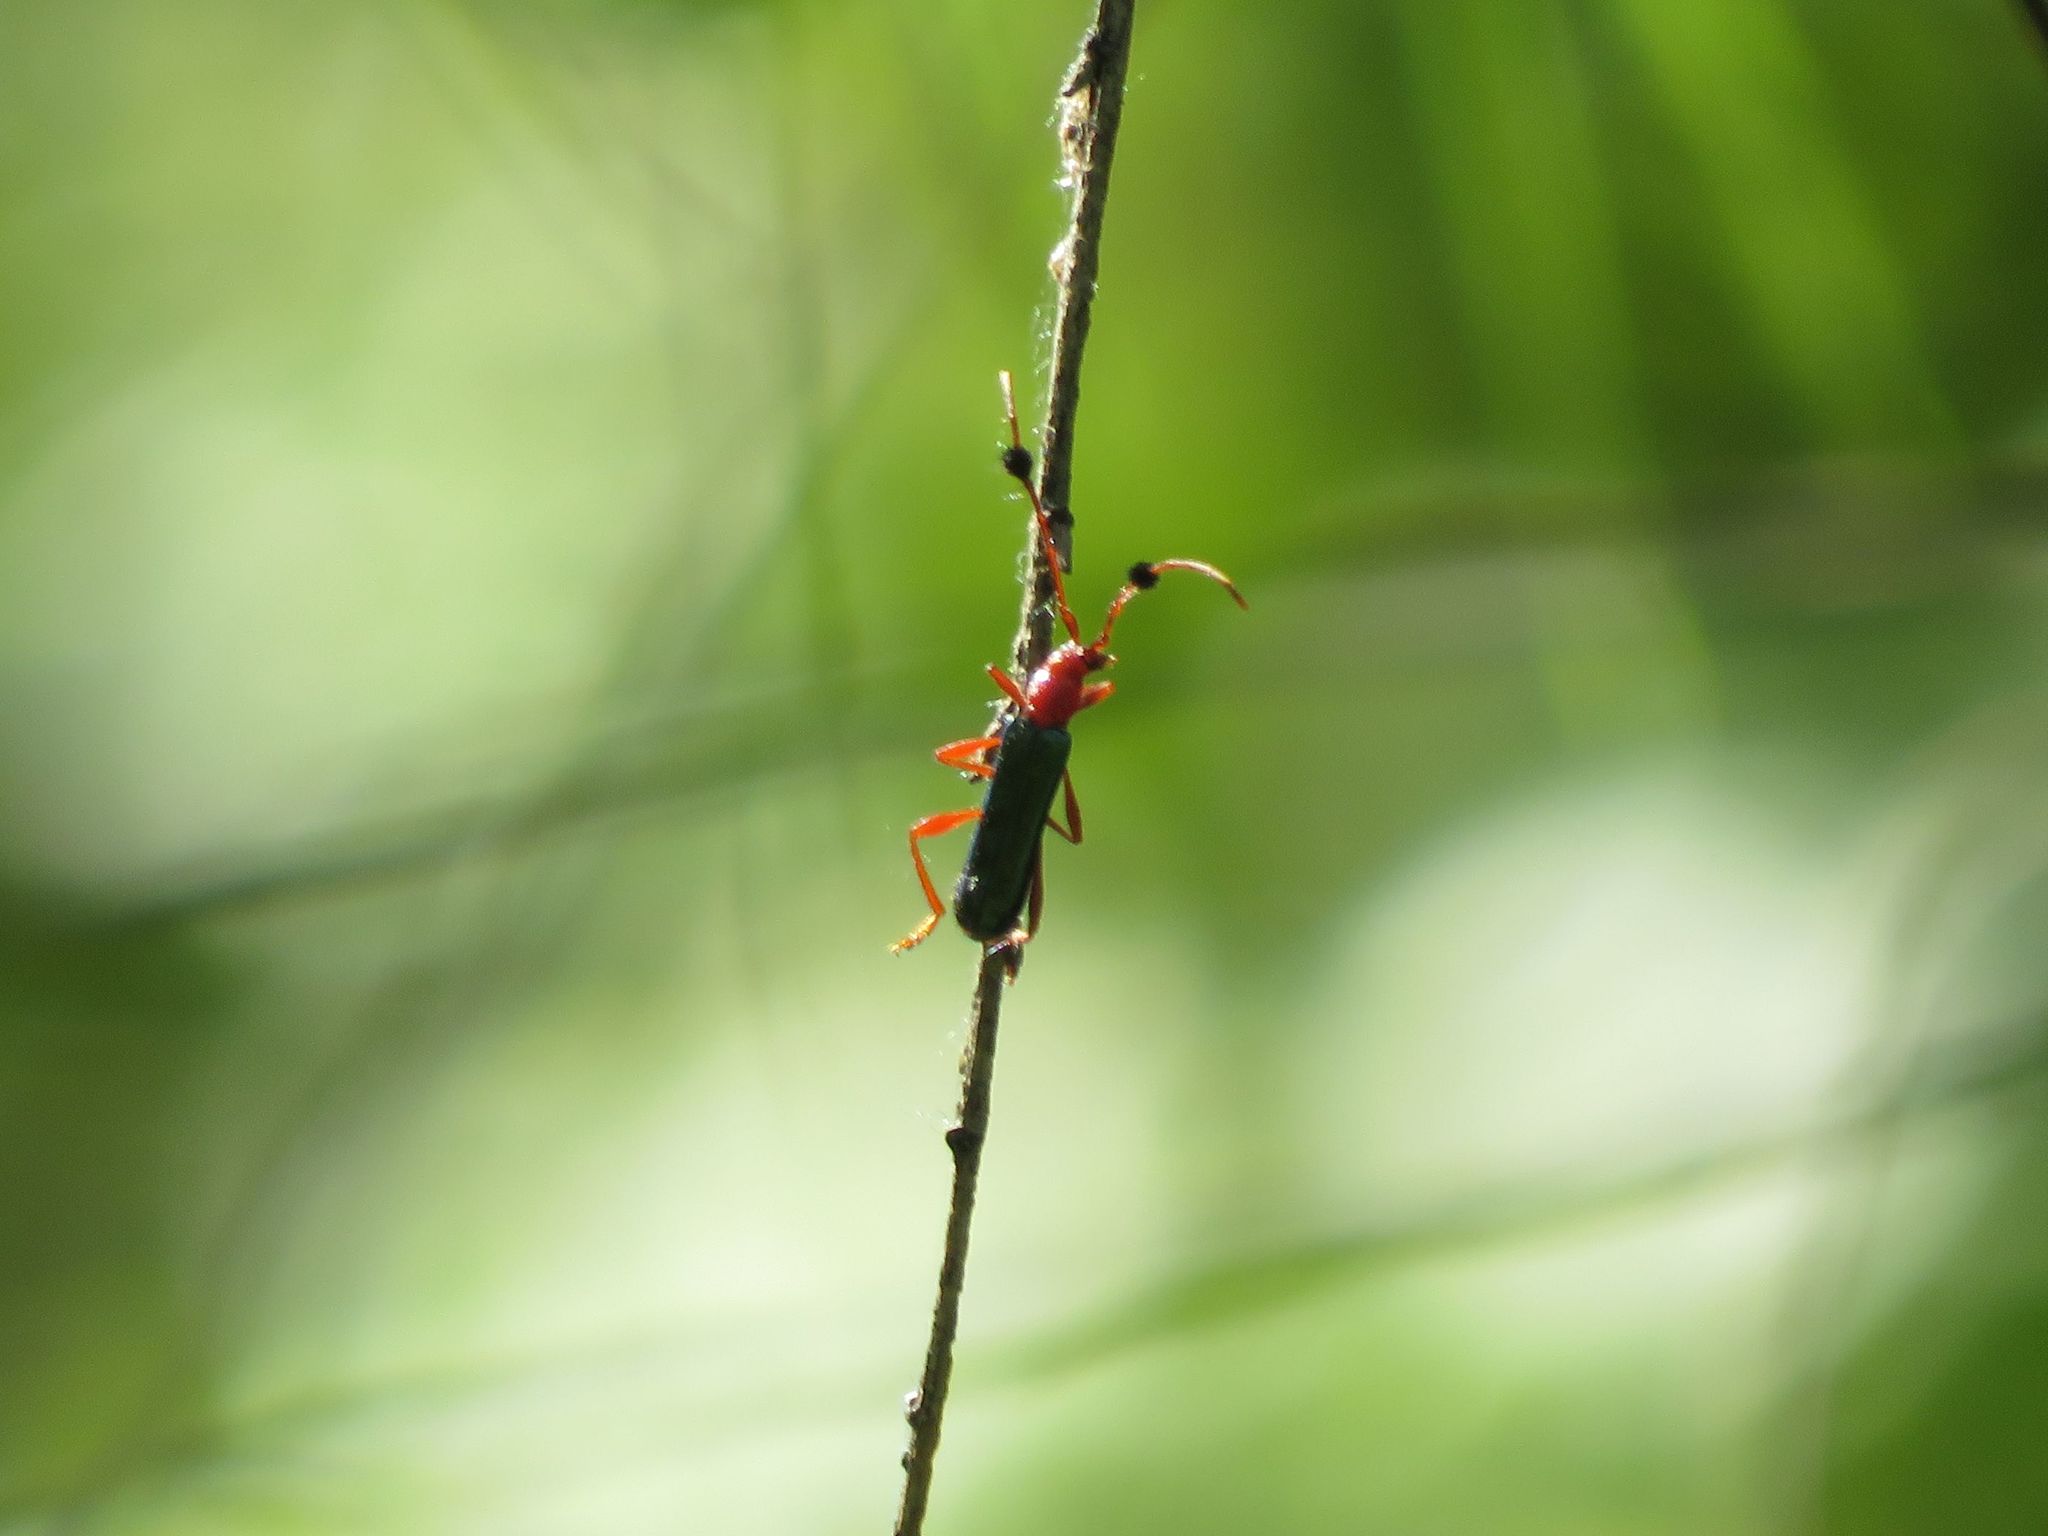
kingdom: Animalia
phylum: Arthropoda
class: Insecta
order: Coleoptera
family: Cerambycidae
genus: Paromoeocerus
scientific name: Paromoeocerus barbicornis
